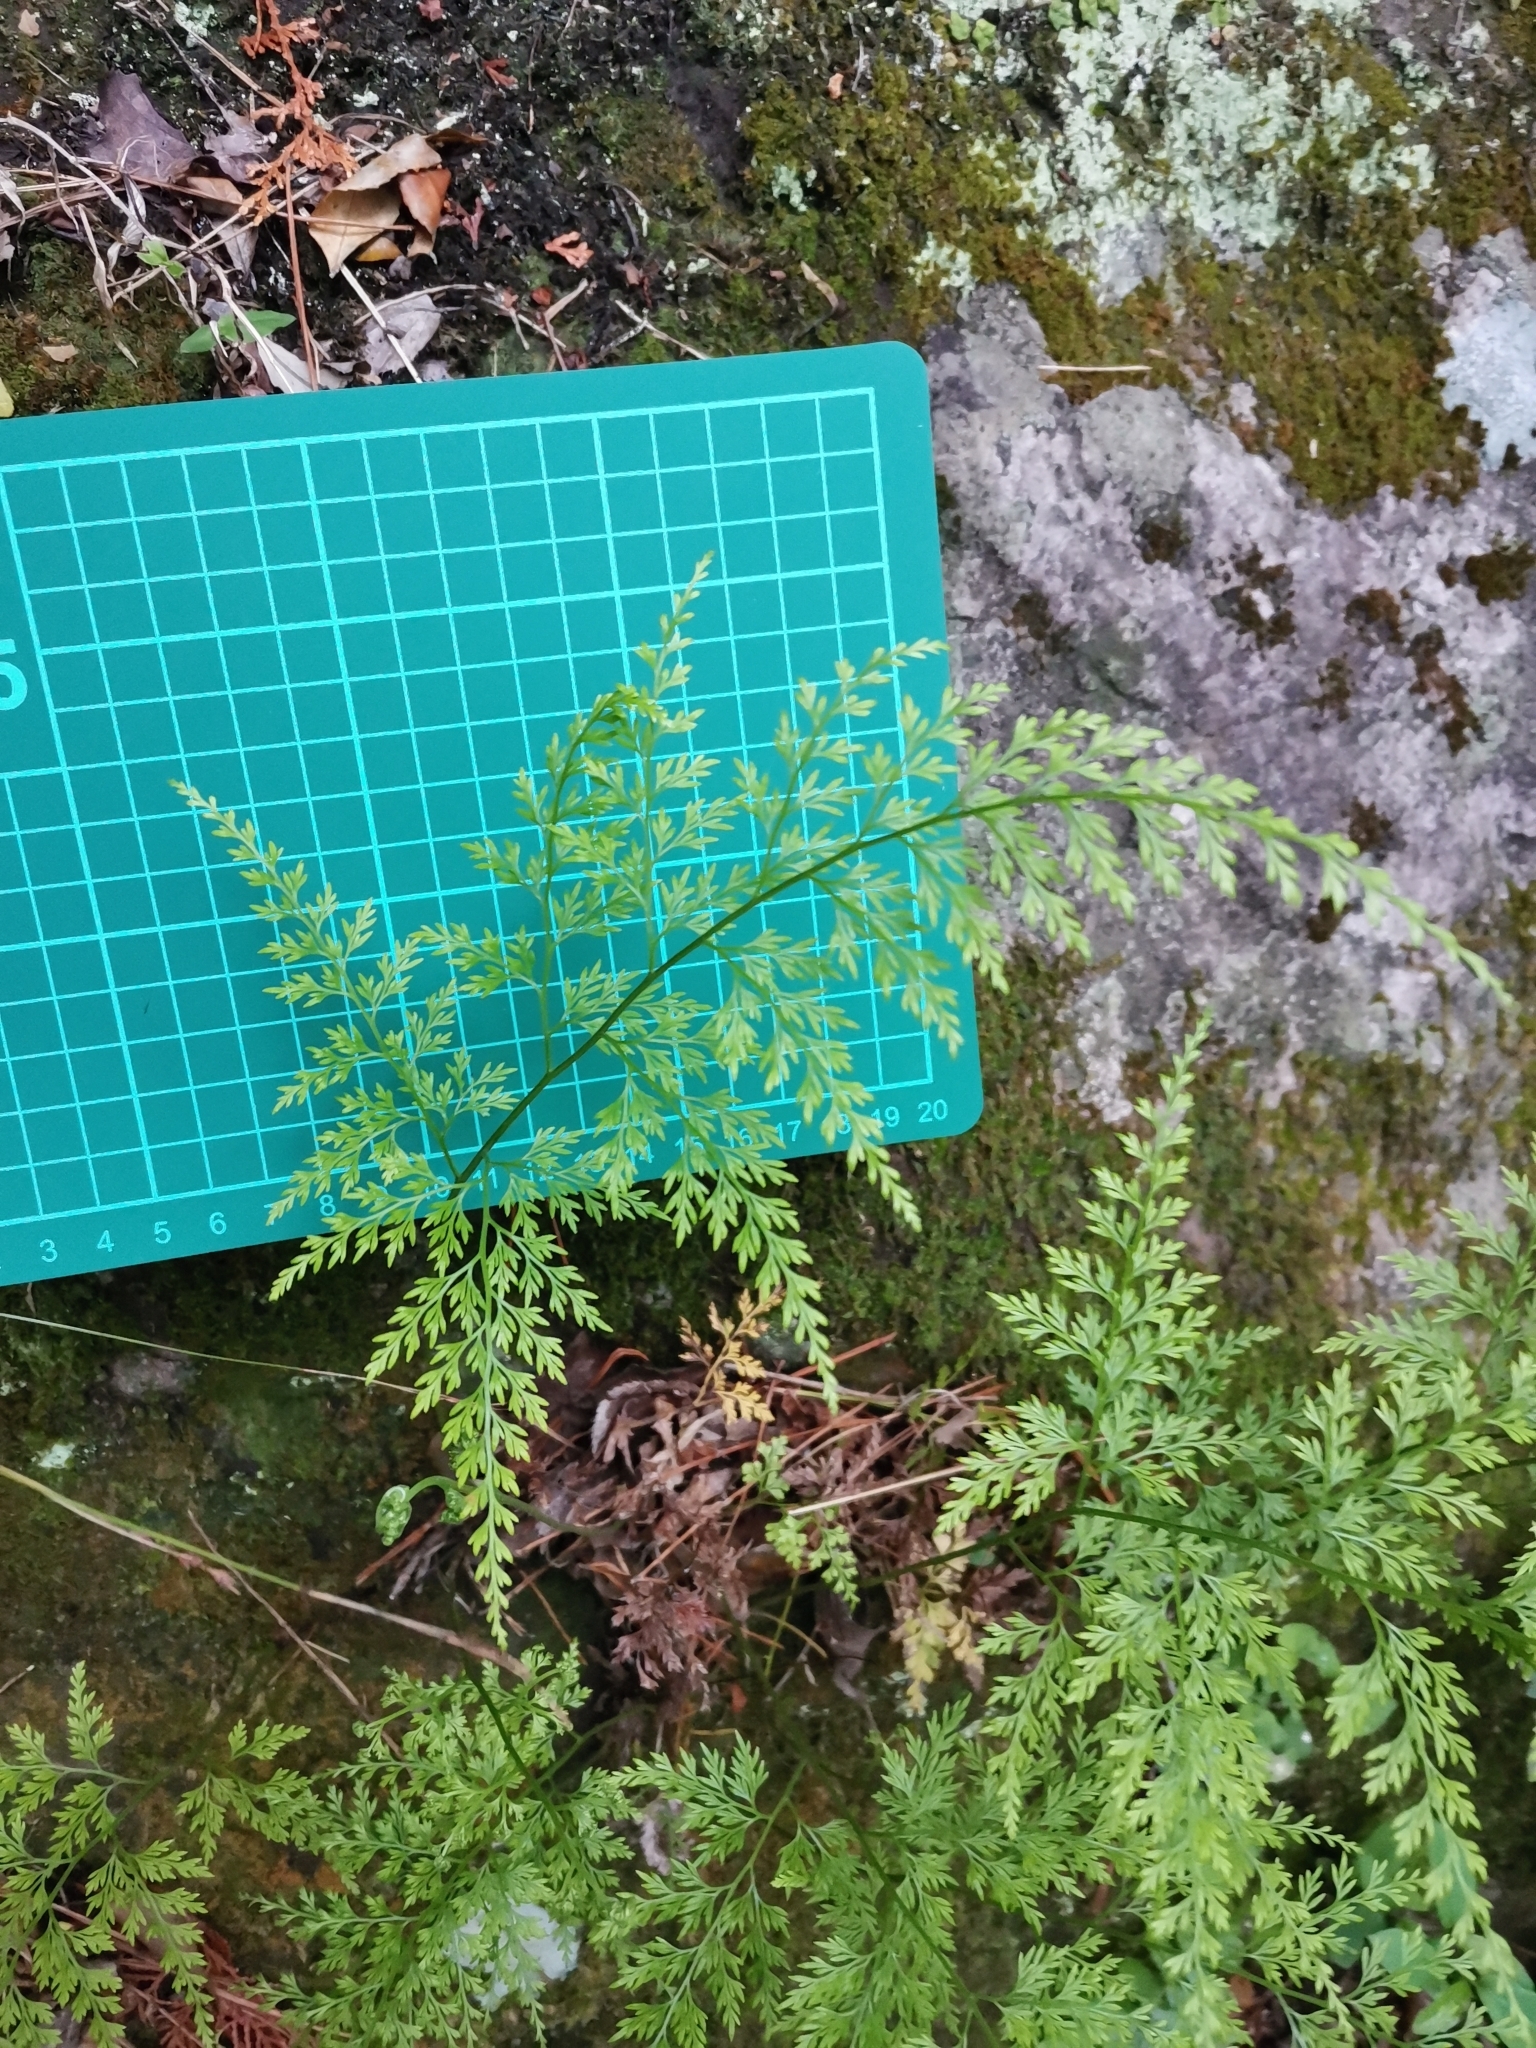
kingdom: Plantae
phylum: Tracheophyta
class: Polypodiopsida
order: Polypodiales
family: Pteridaceae
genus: Onychium
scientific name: Onychium japonicum
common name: Carrot fern
